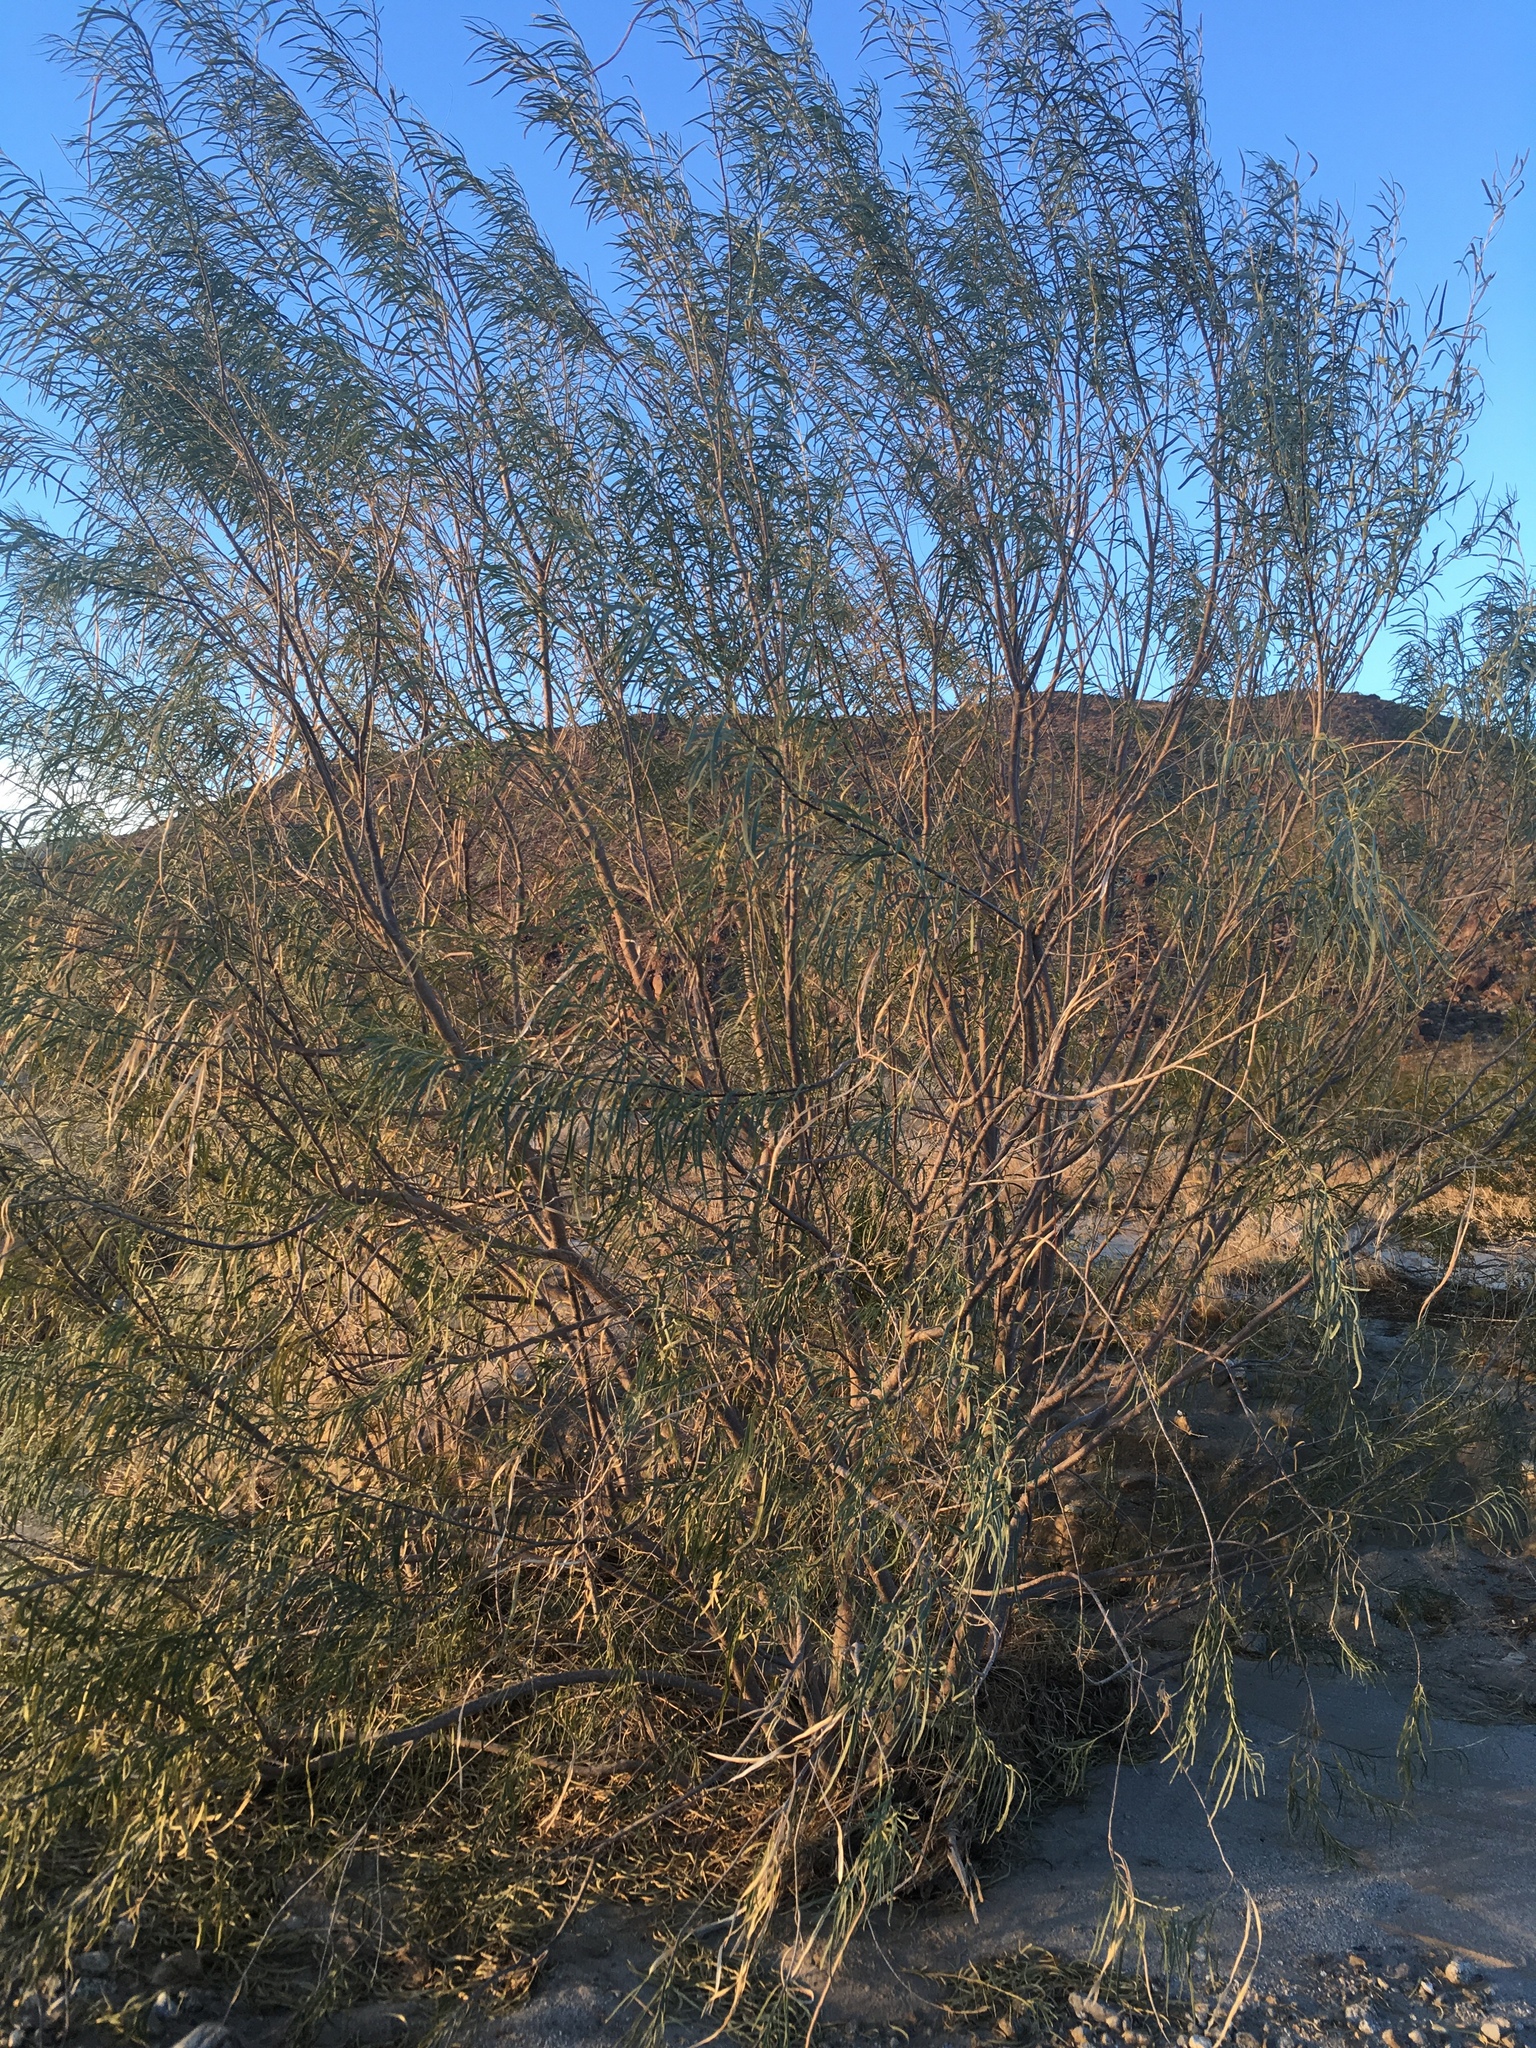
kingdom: Plantae
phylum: Tracheophyta
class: Magnoliopsida
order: Lamiales
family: Bignoniaceae
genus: Chilopsis
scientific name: Chilopsis linearis
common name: Desert-willow
